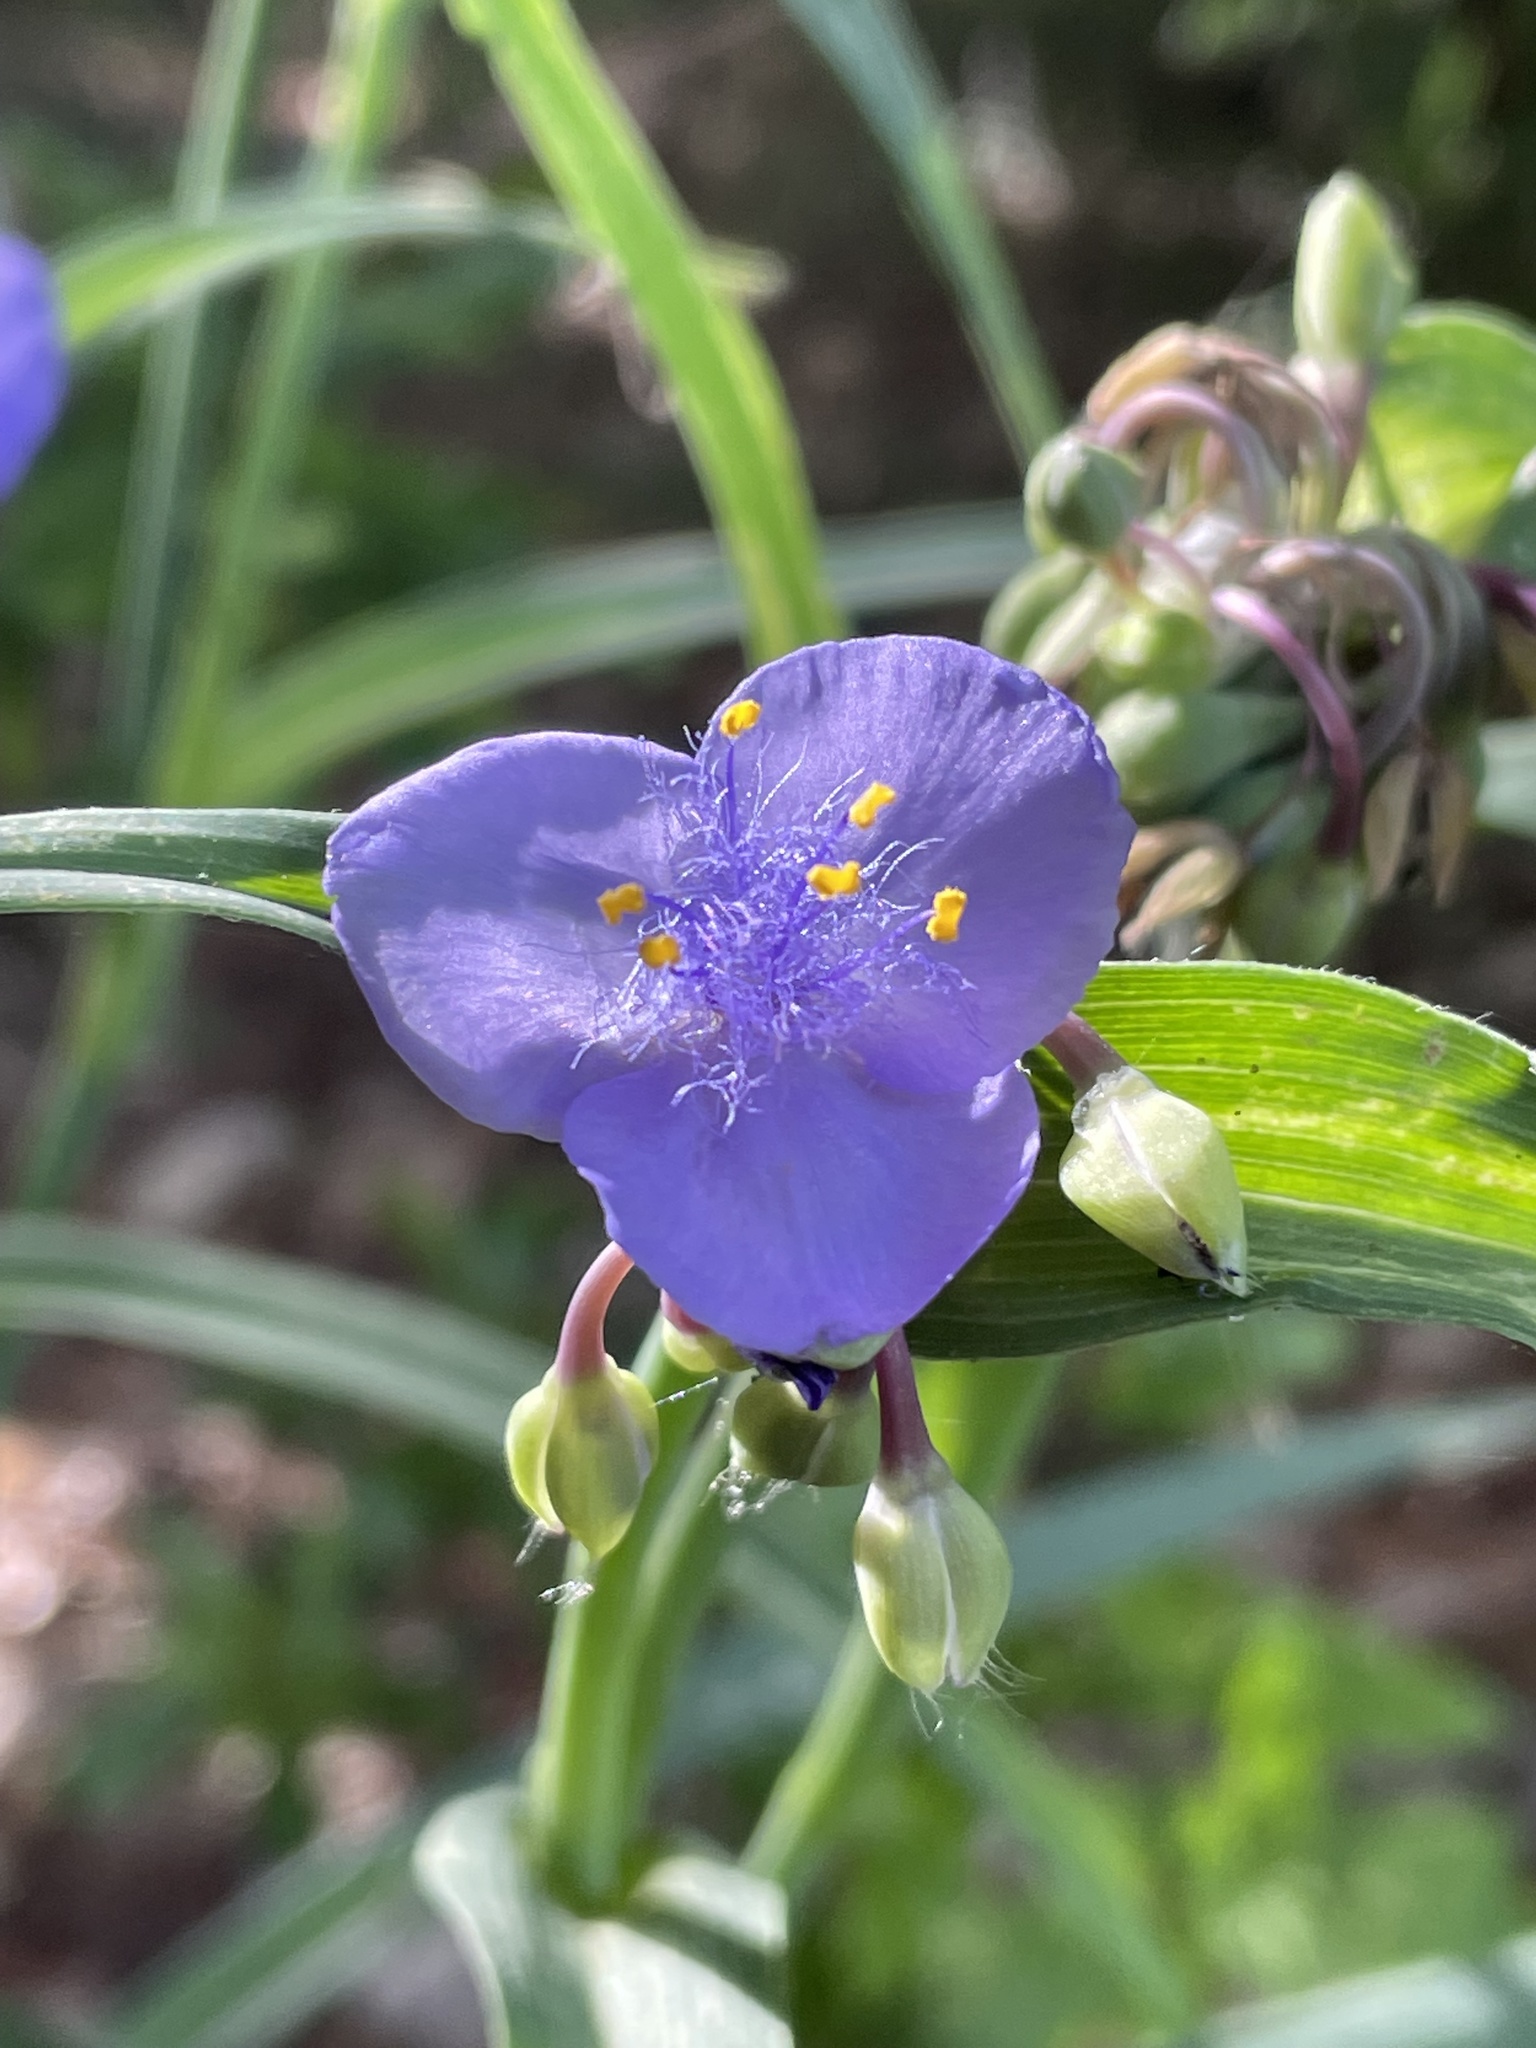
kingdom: Plantae
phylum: Tracheophyta
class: Liliopsida
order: Commelinales
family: Commelinaceae
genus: Tradescantia
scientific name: Tradescantia ohiensis
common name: Ohio spiderwort
